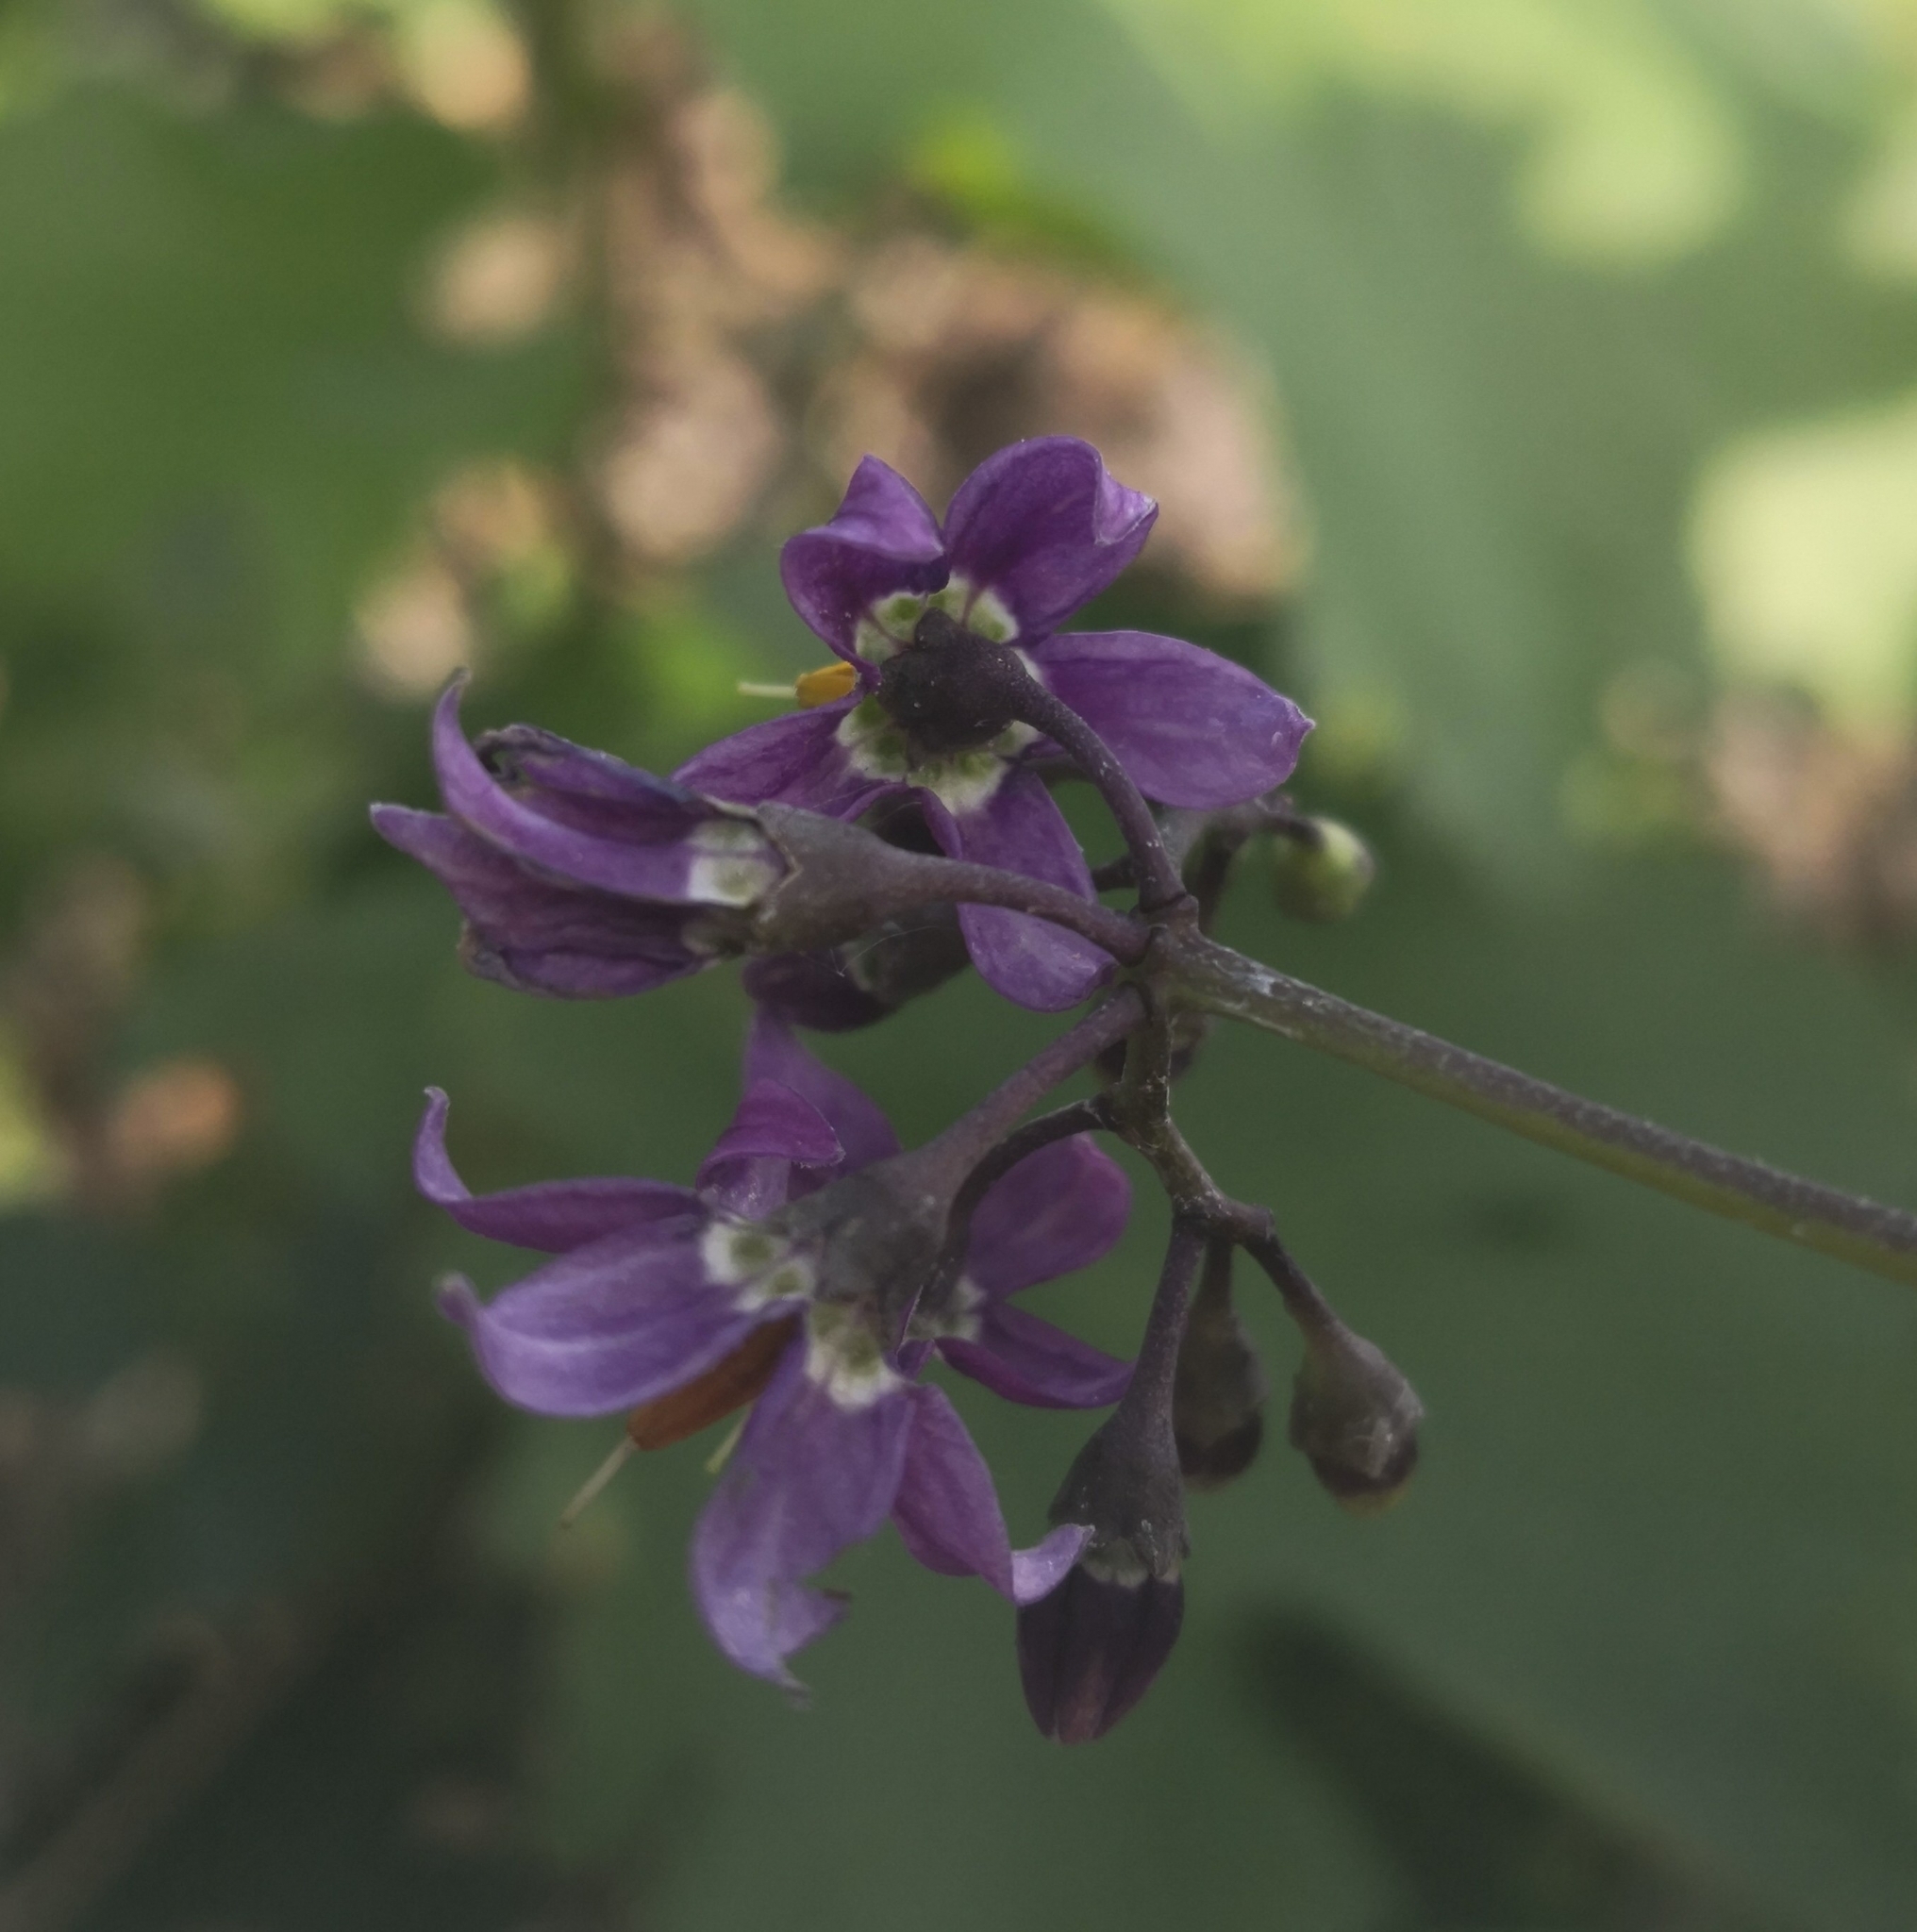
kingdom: Plantae
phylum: Tracheophyta
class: Magnoliopsida
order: Solanales
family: Solanaceae
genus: Solanum
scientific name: Solanum dulcamara
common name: Climbing nightshade
